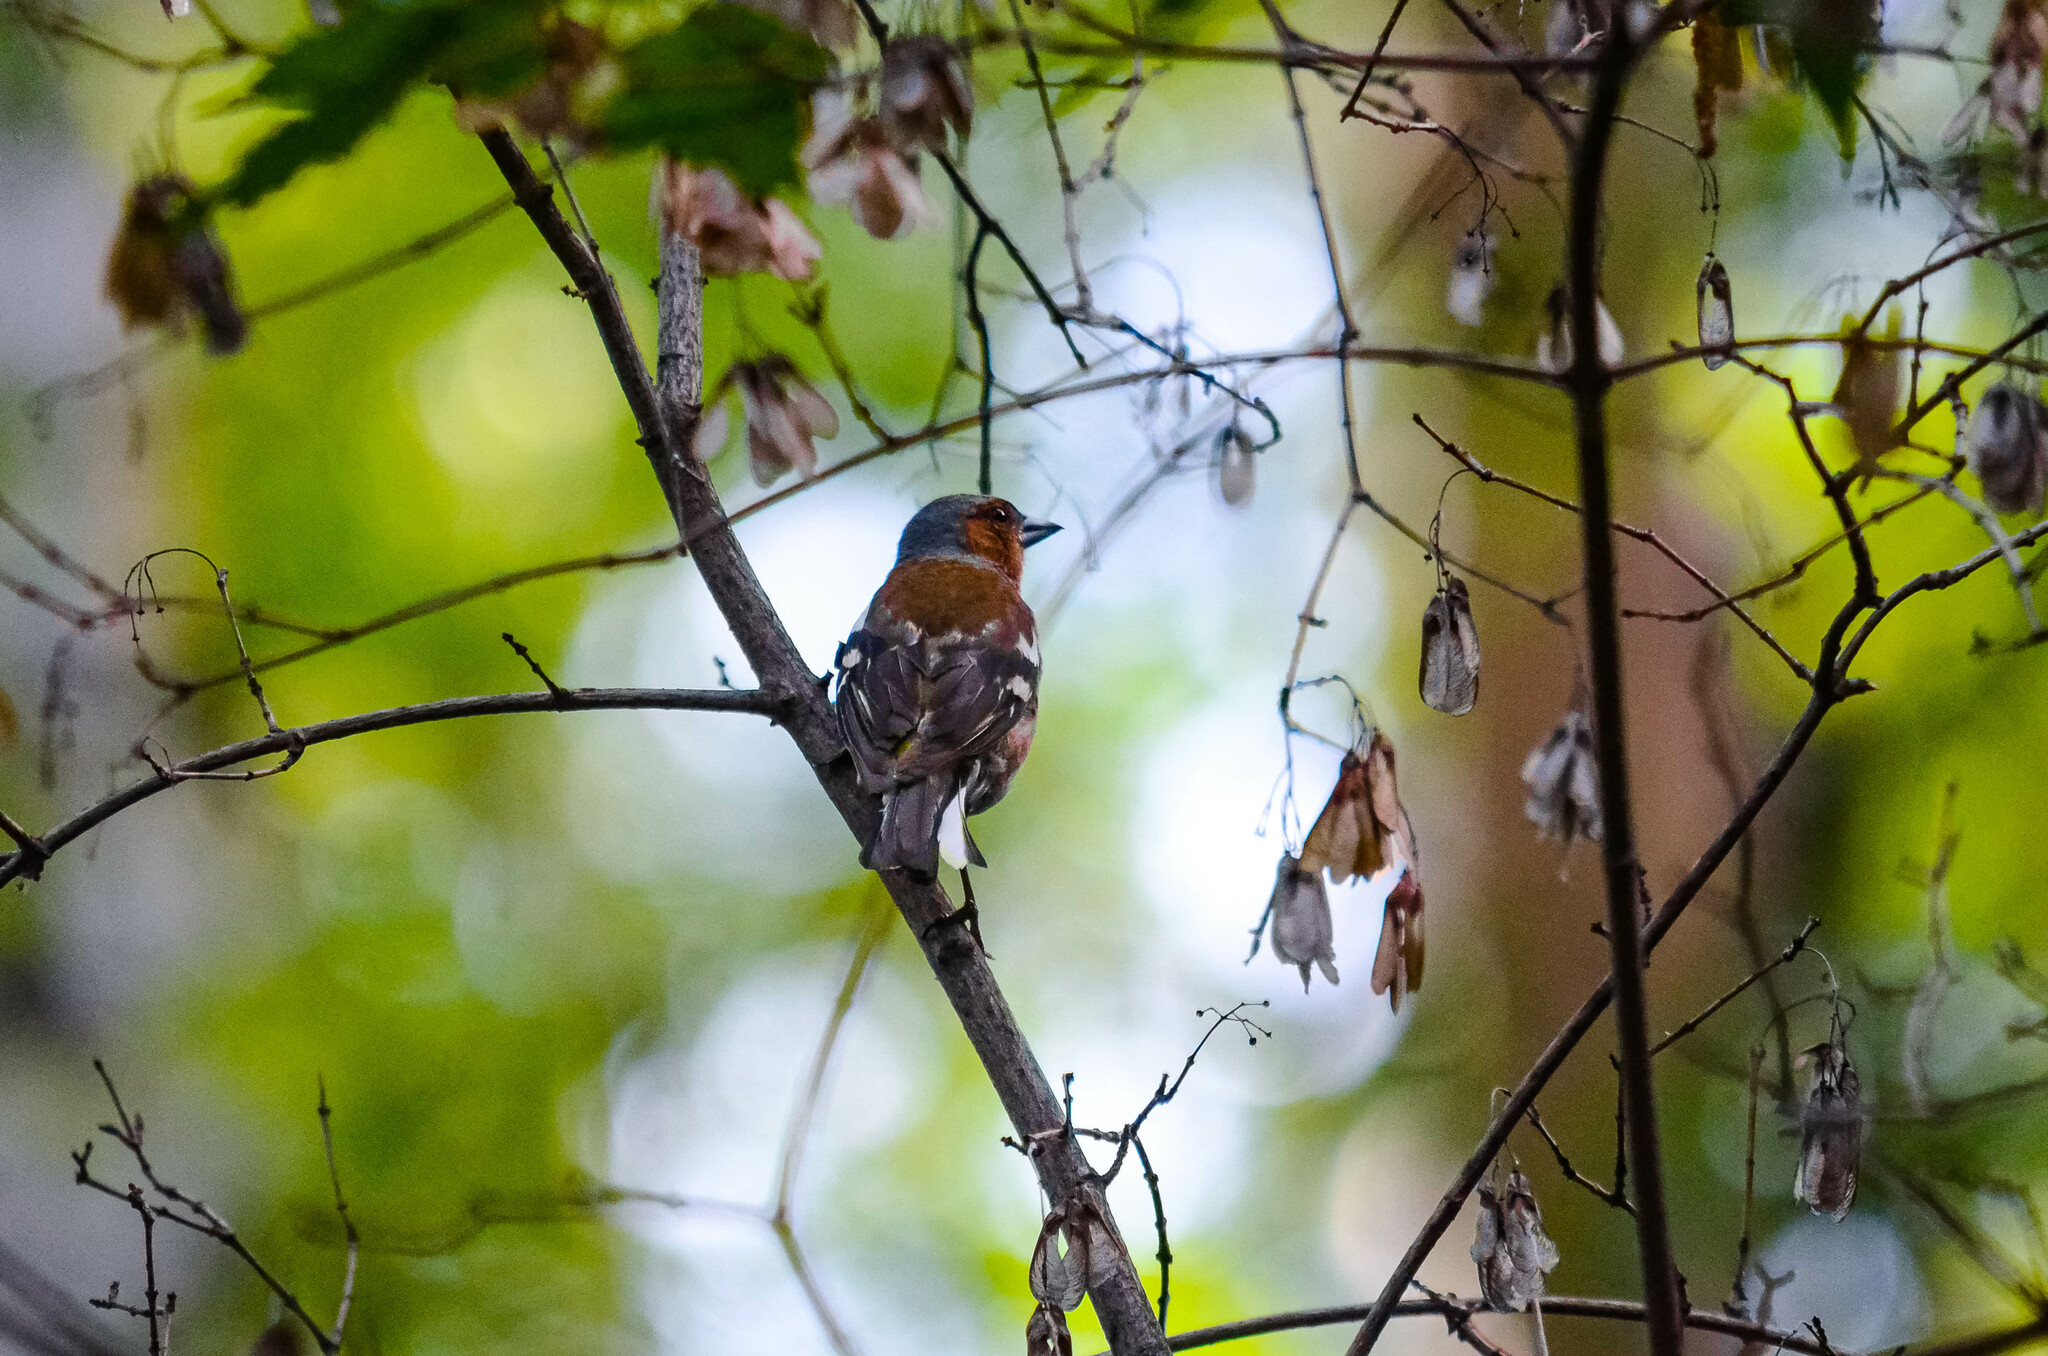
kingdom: Animalia
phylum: Chordata
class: Aves
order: Passeriformes
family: Fringillidae
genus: Fringilla
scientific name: Fringilla coelebs
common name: Common chaffinch
